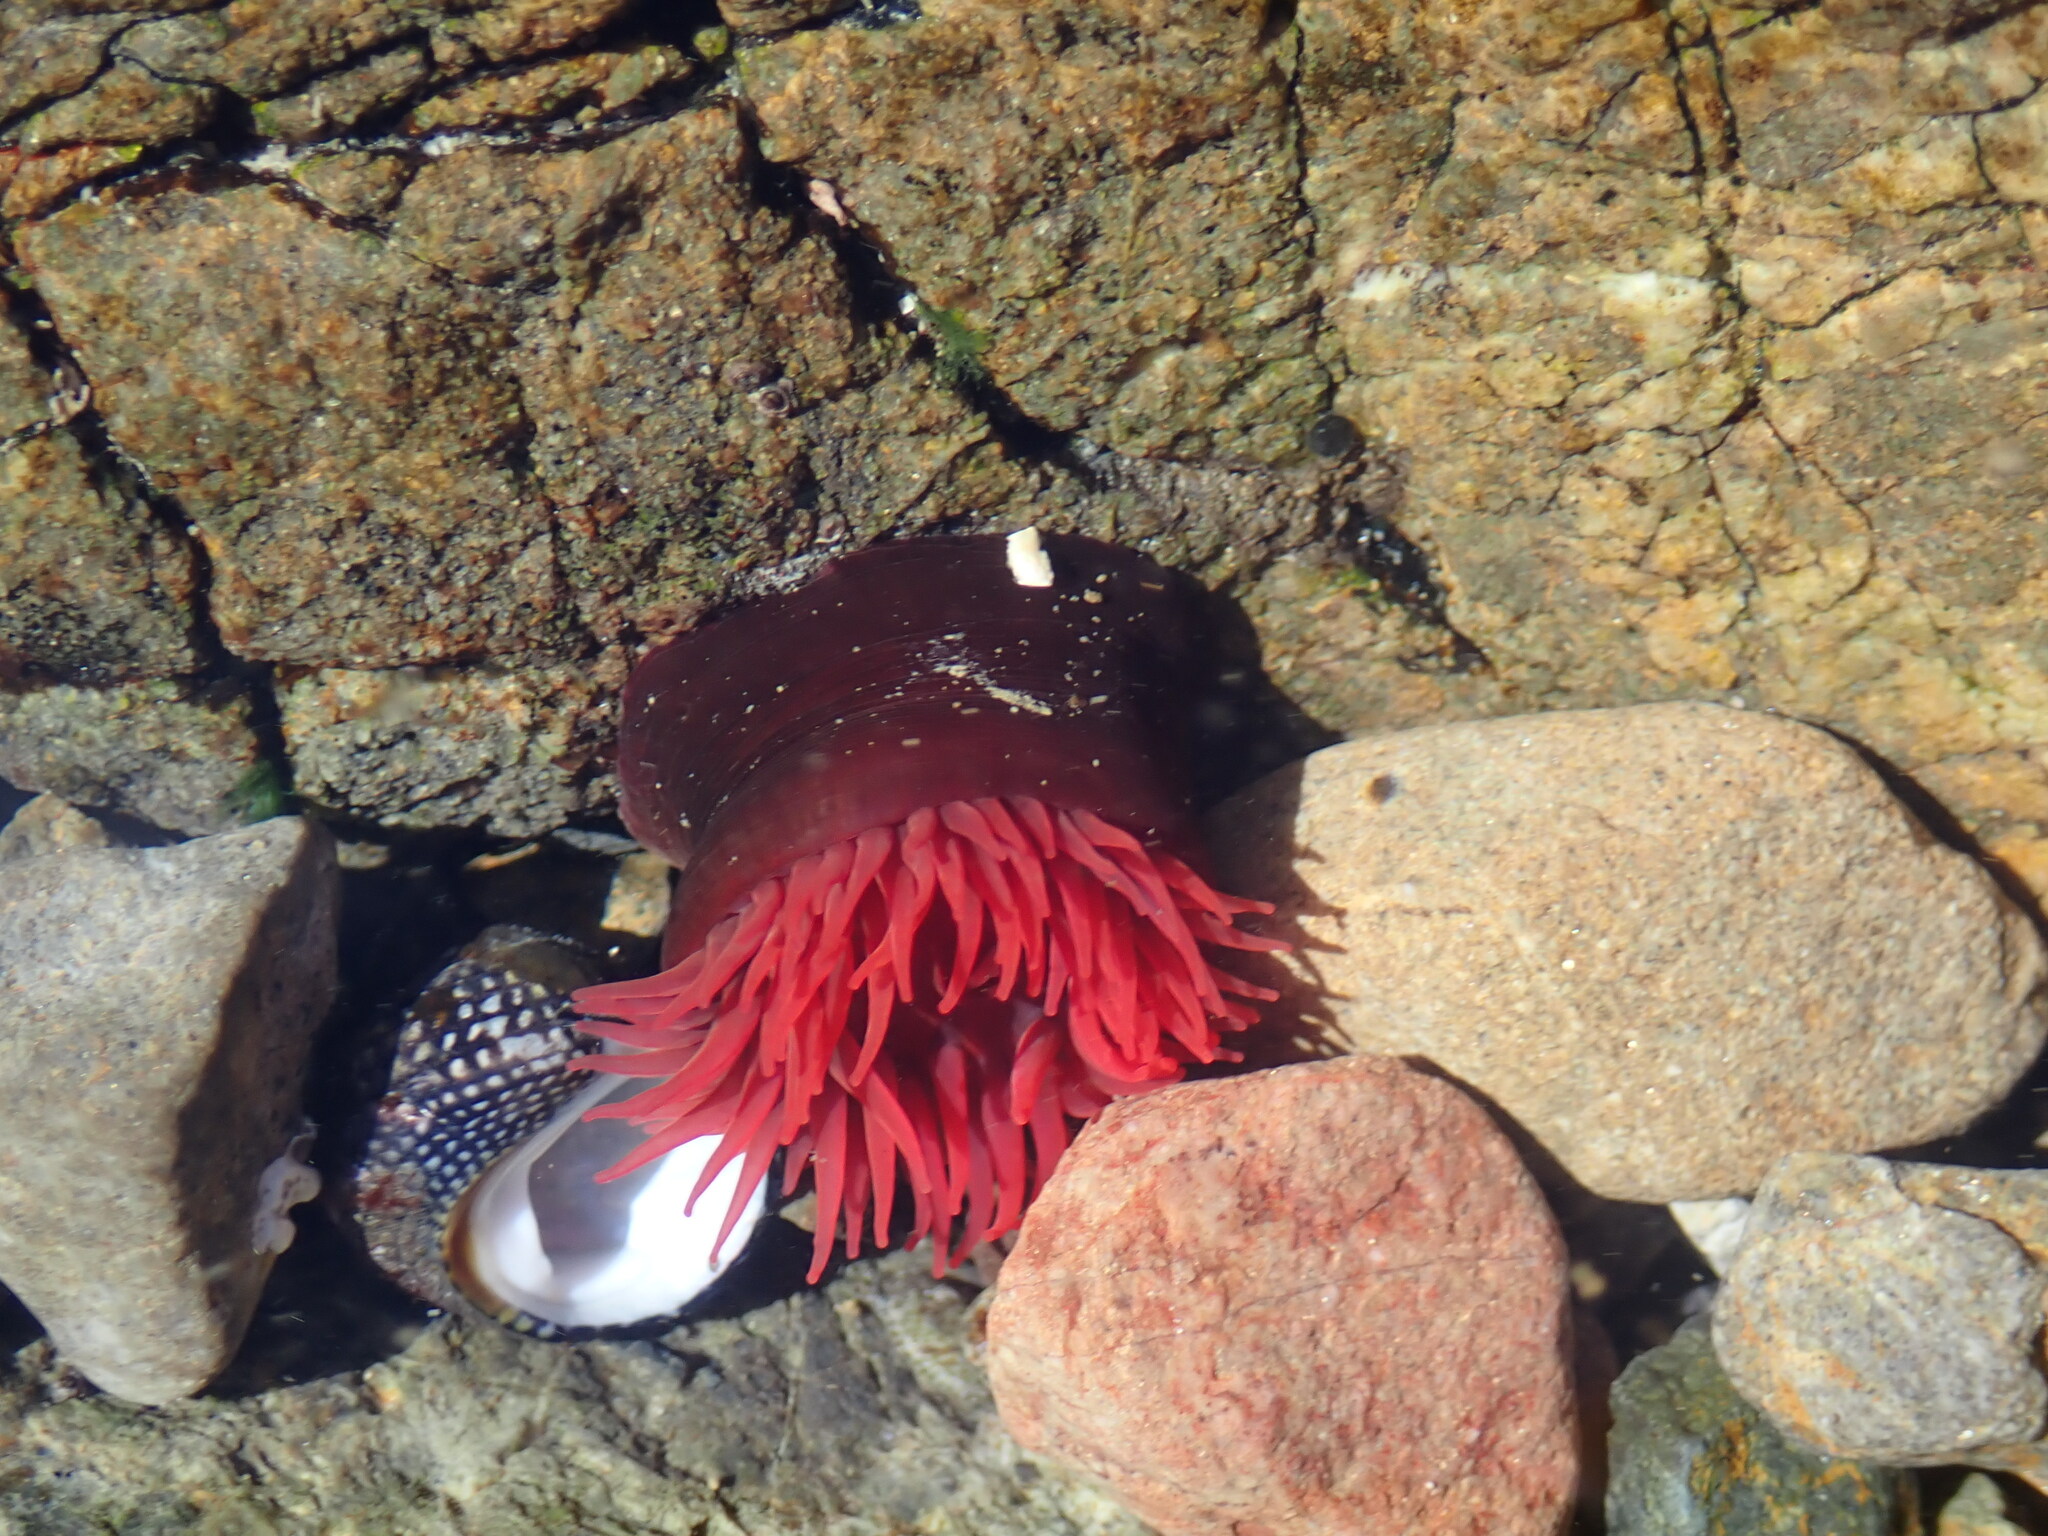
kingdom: Animalia
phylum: Cnidaria
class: Anthozoa
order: Actiniaria
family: Actiniidae
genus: Actinia
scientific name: Actinia tenebrosa
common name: Waratah anemone
